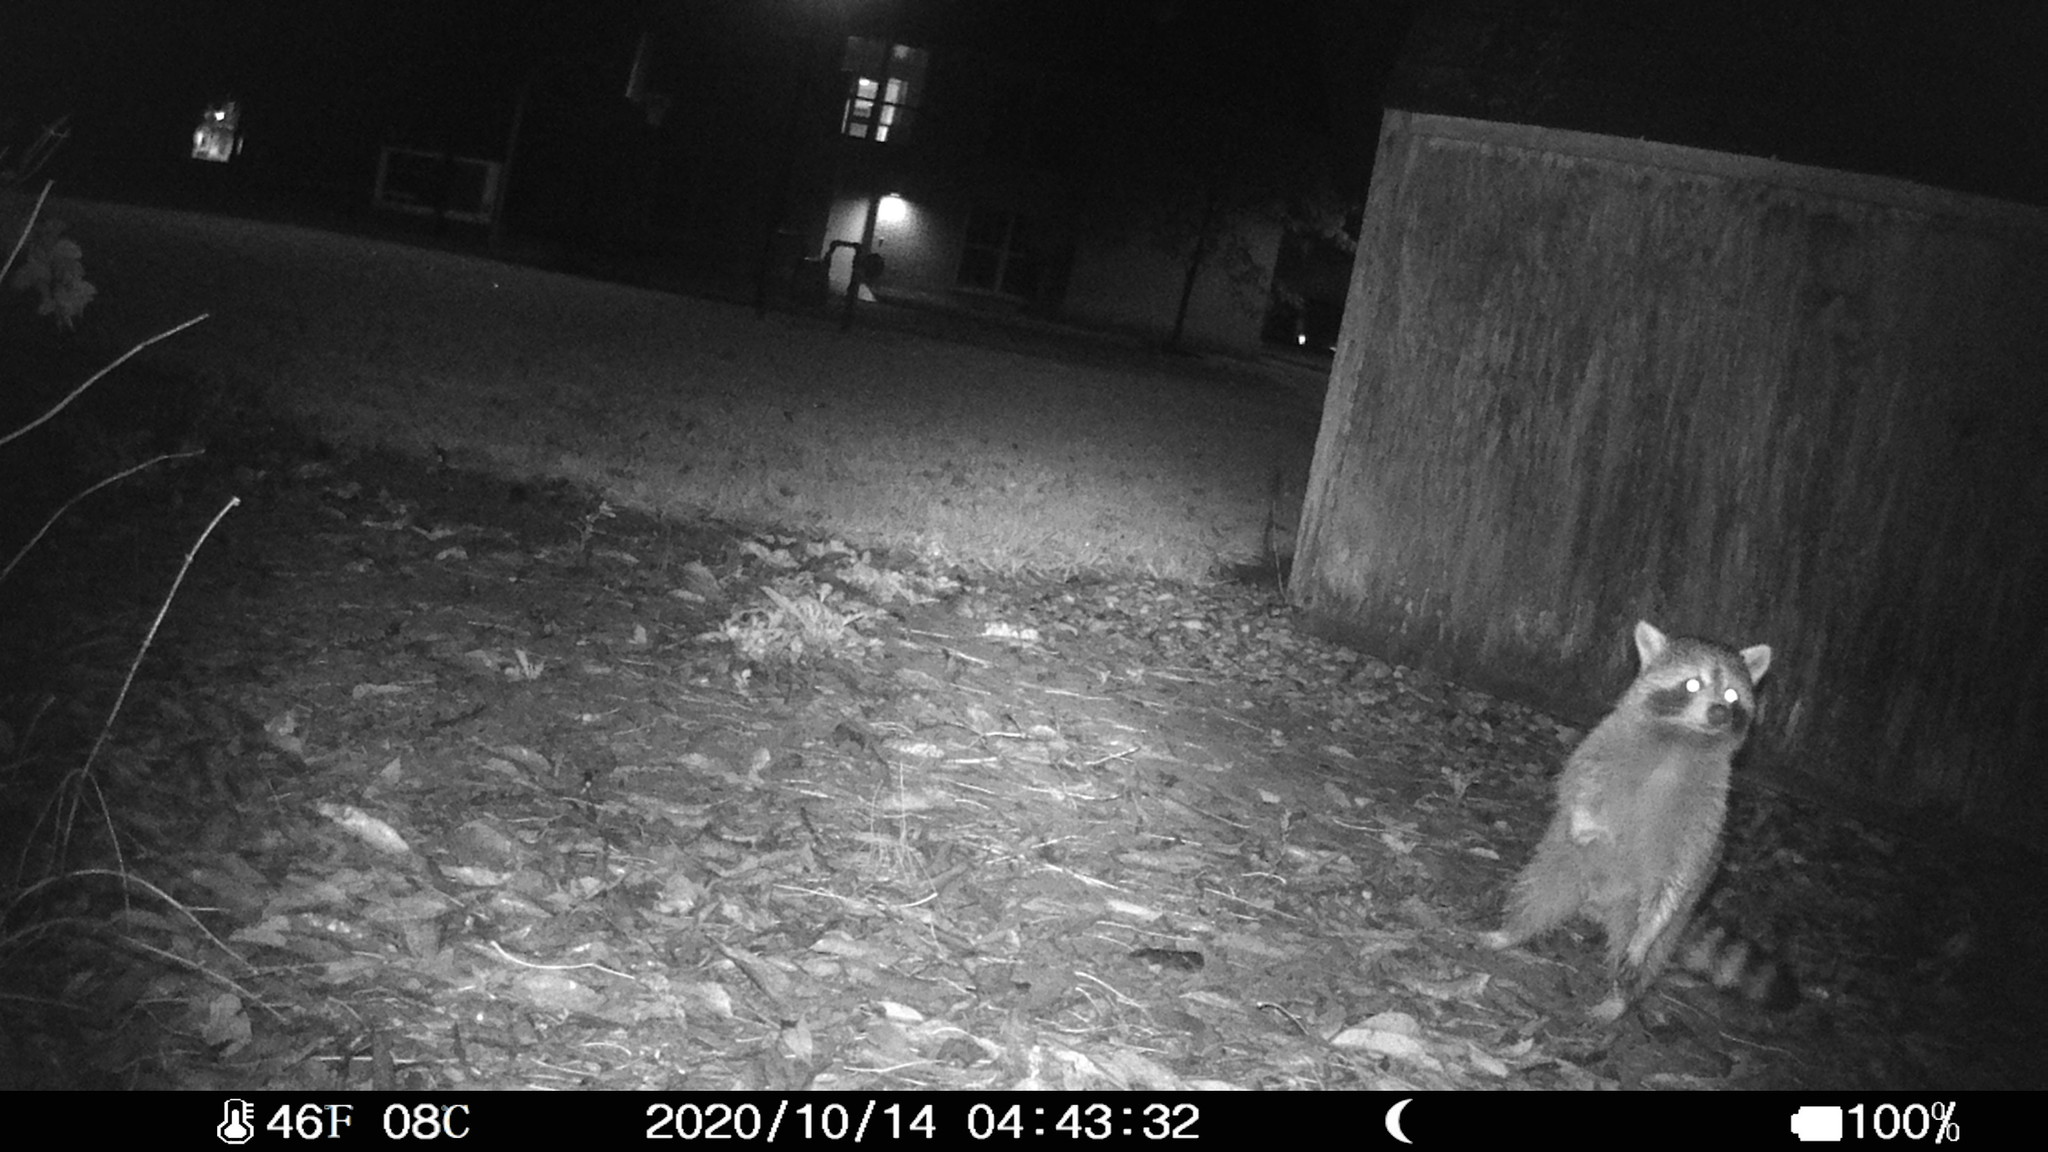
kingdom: Animalia
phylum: Chordata
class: Mammalia
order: Carnivora
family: Procyonidae
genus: Procyon
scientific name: Procyon lotor
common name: Raccoon
